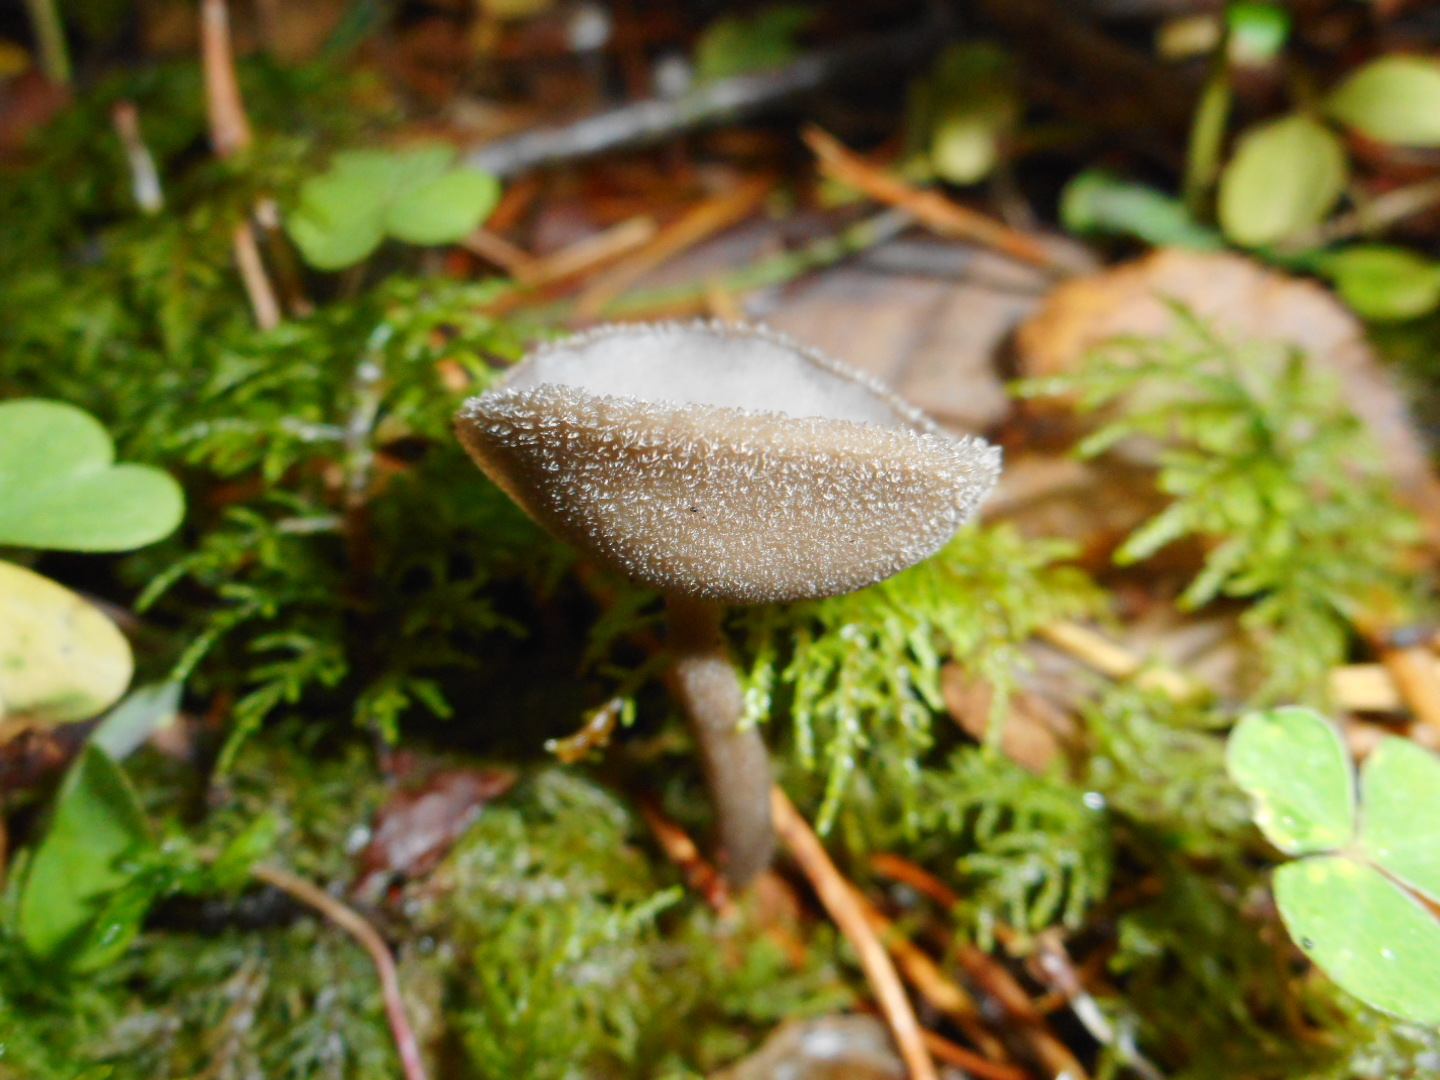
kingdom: Fungi
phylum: Ascomycota
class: Pezizomycetes
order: Pezizales
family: Helvellaceae
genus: Helvella
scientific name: Helvella macropus
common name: Felt saddle
